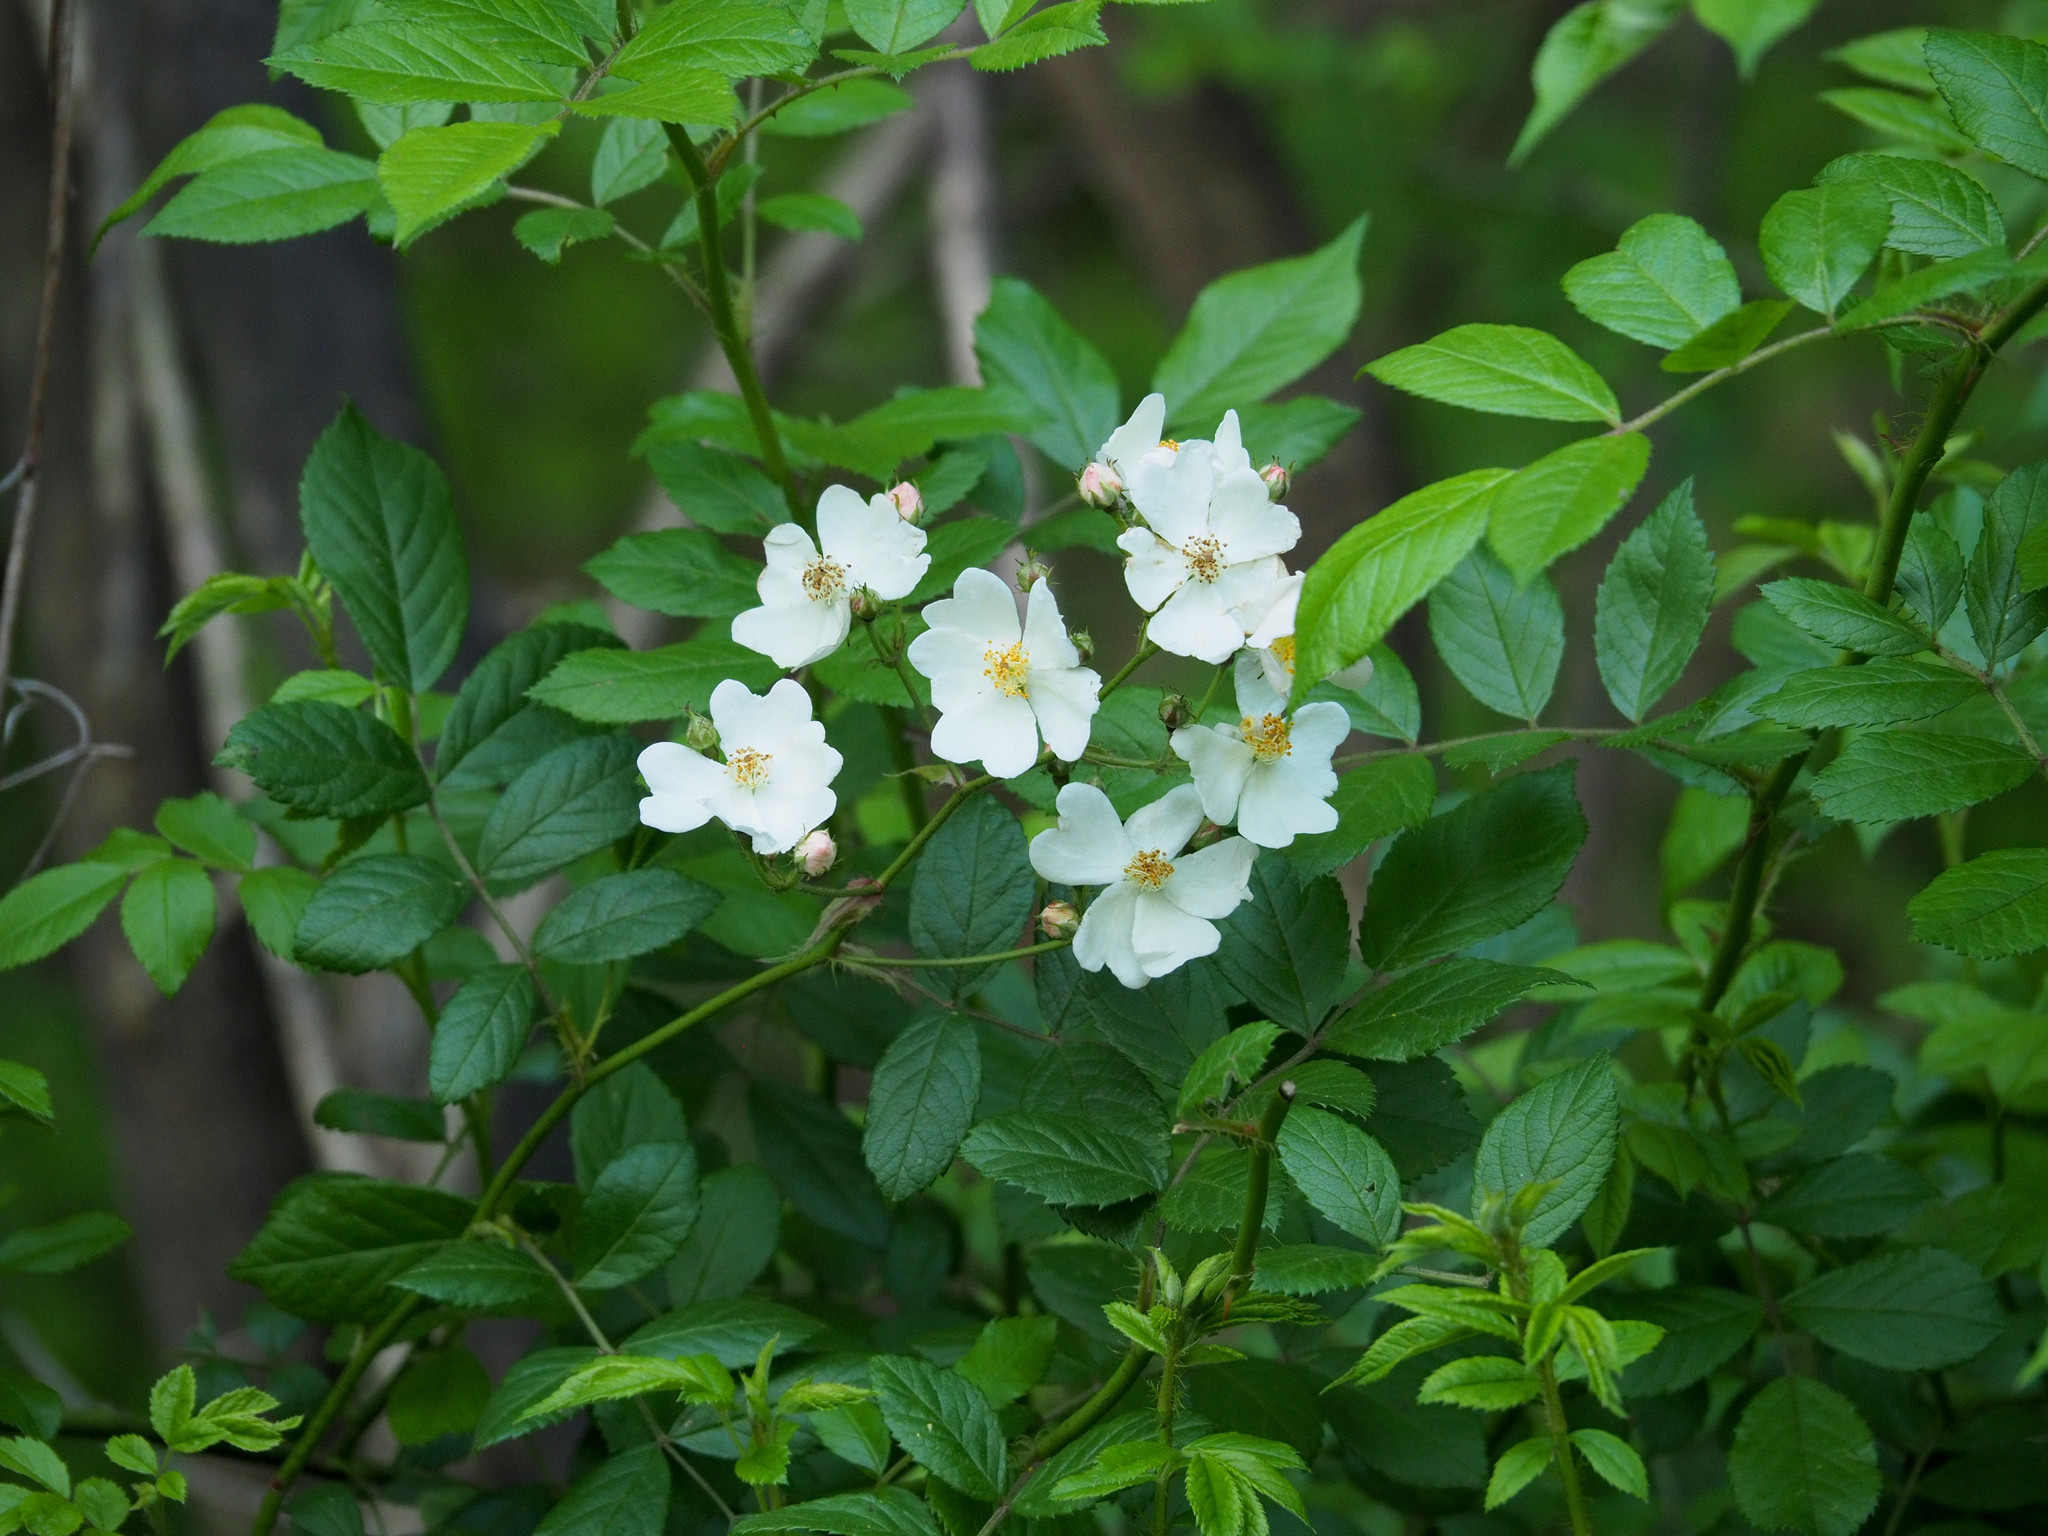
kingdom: Plantae
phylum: Tracheophyta
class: Magnoliopsida
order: Rosales
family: Rosaceae
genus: Rosa
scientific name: Rosa multiflora
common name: Multiflora rose
